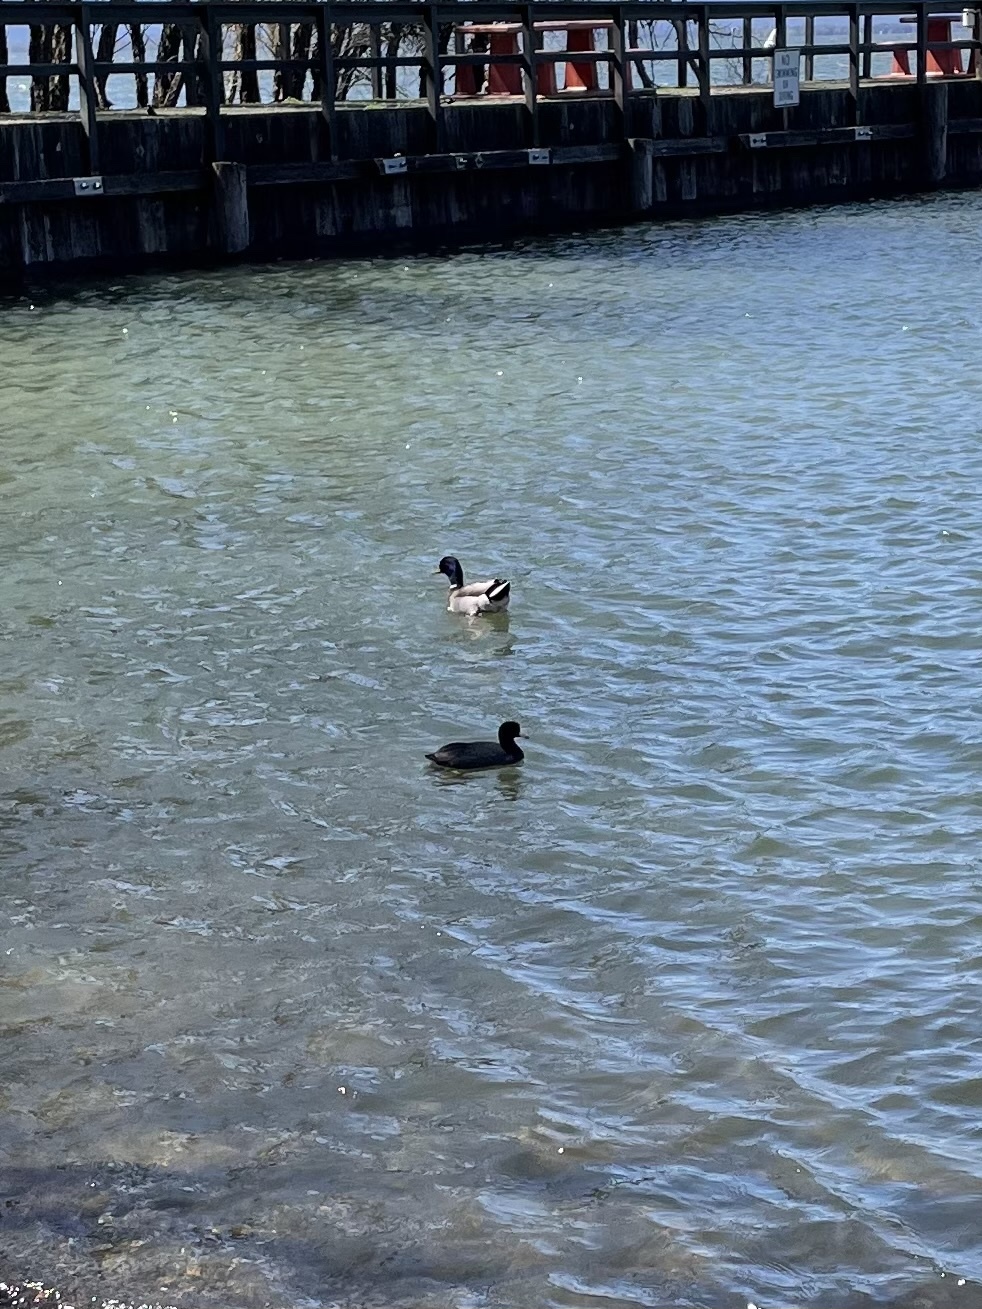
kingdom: Animalia
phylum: Chordata
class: Aves
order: Gruiformes
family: Rallidae
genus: Fulica
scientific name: Fulica americana
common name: American coot
